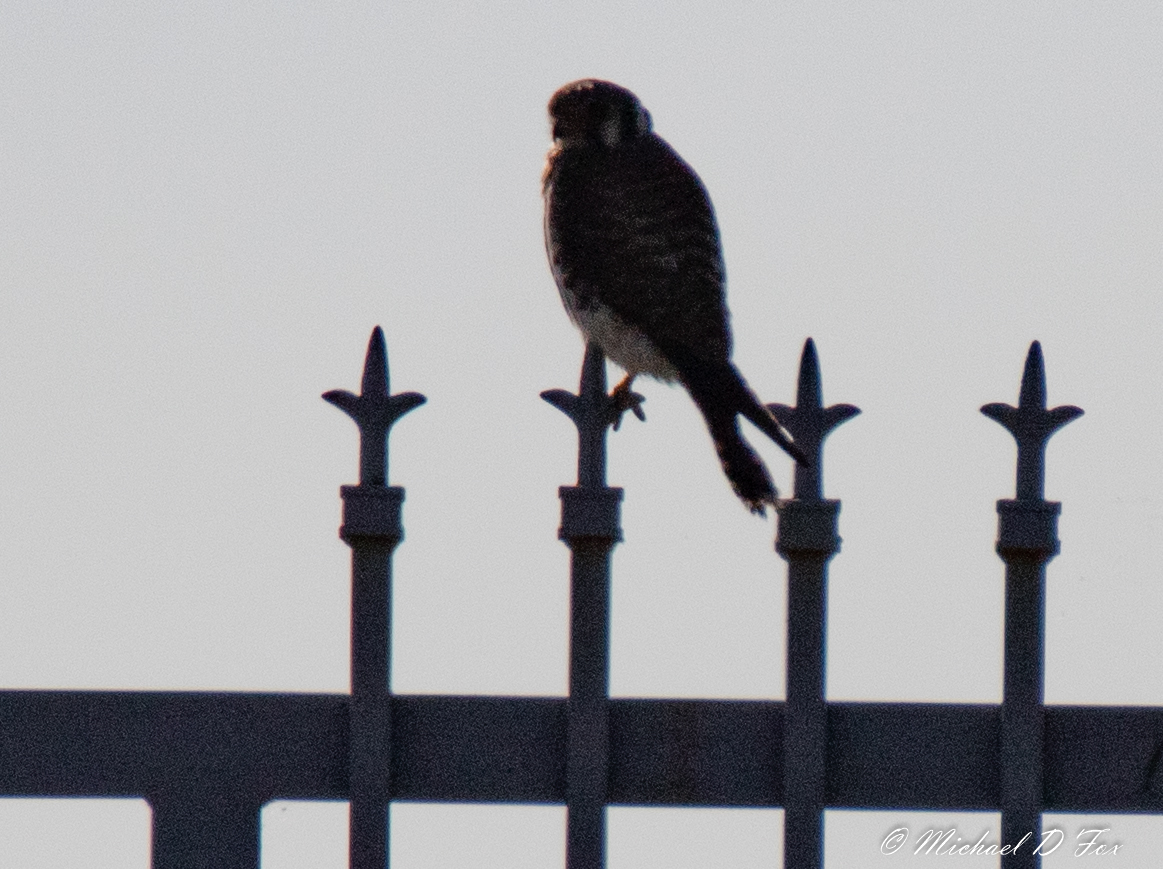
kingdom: Animalia
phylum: Chordata
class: Aves
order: Falconiformes
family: Falconidae
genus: Falco
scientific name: Falco sparverius
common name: American kestrel
